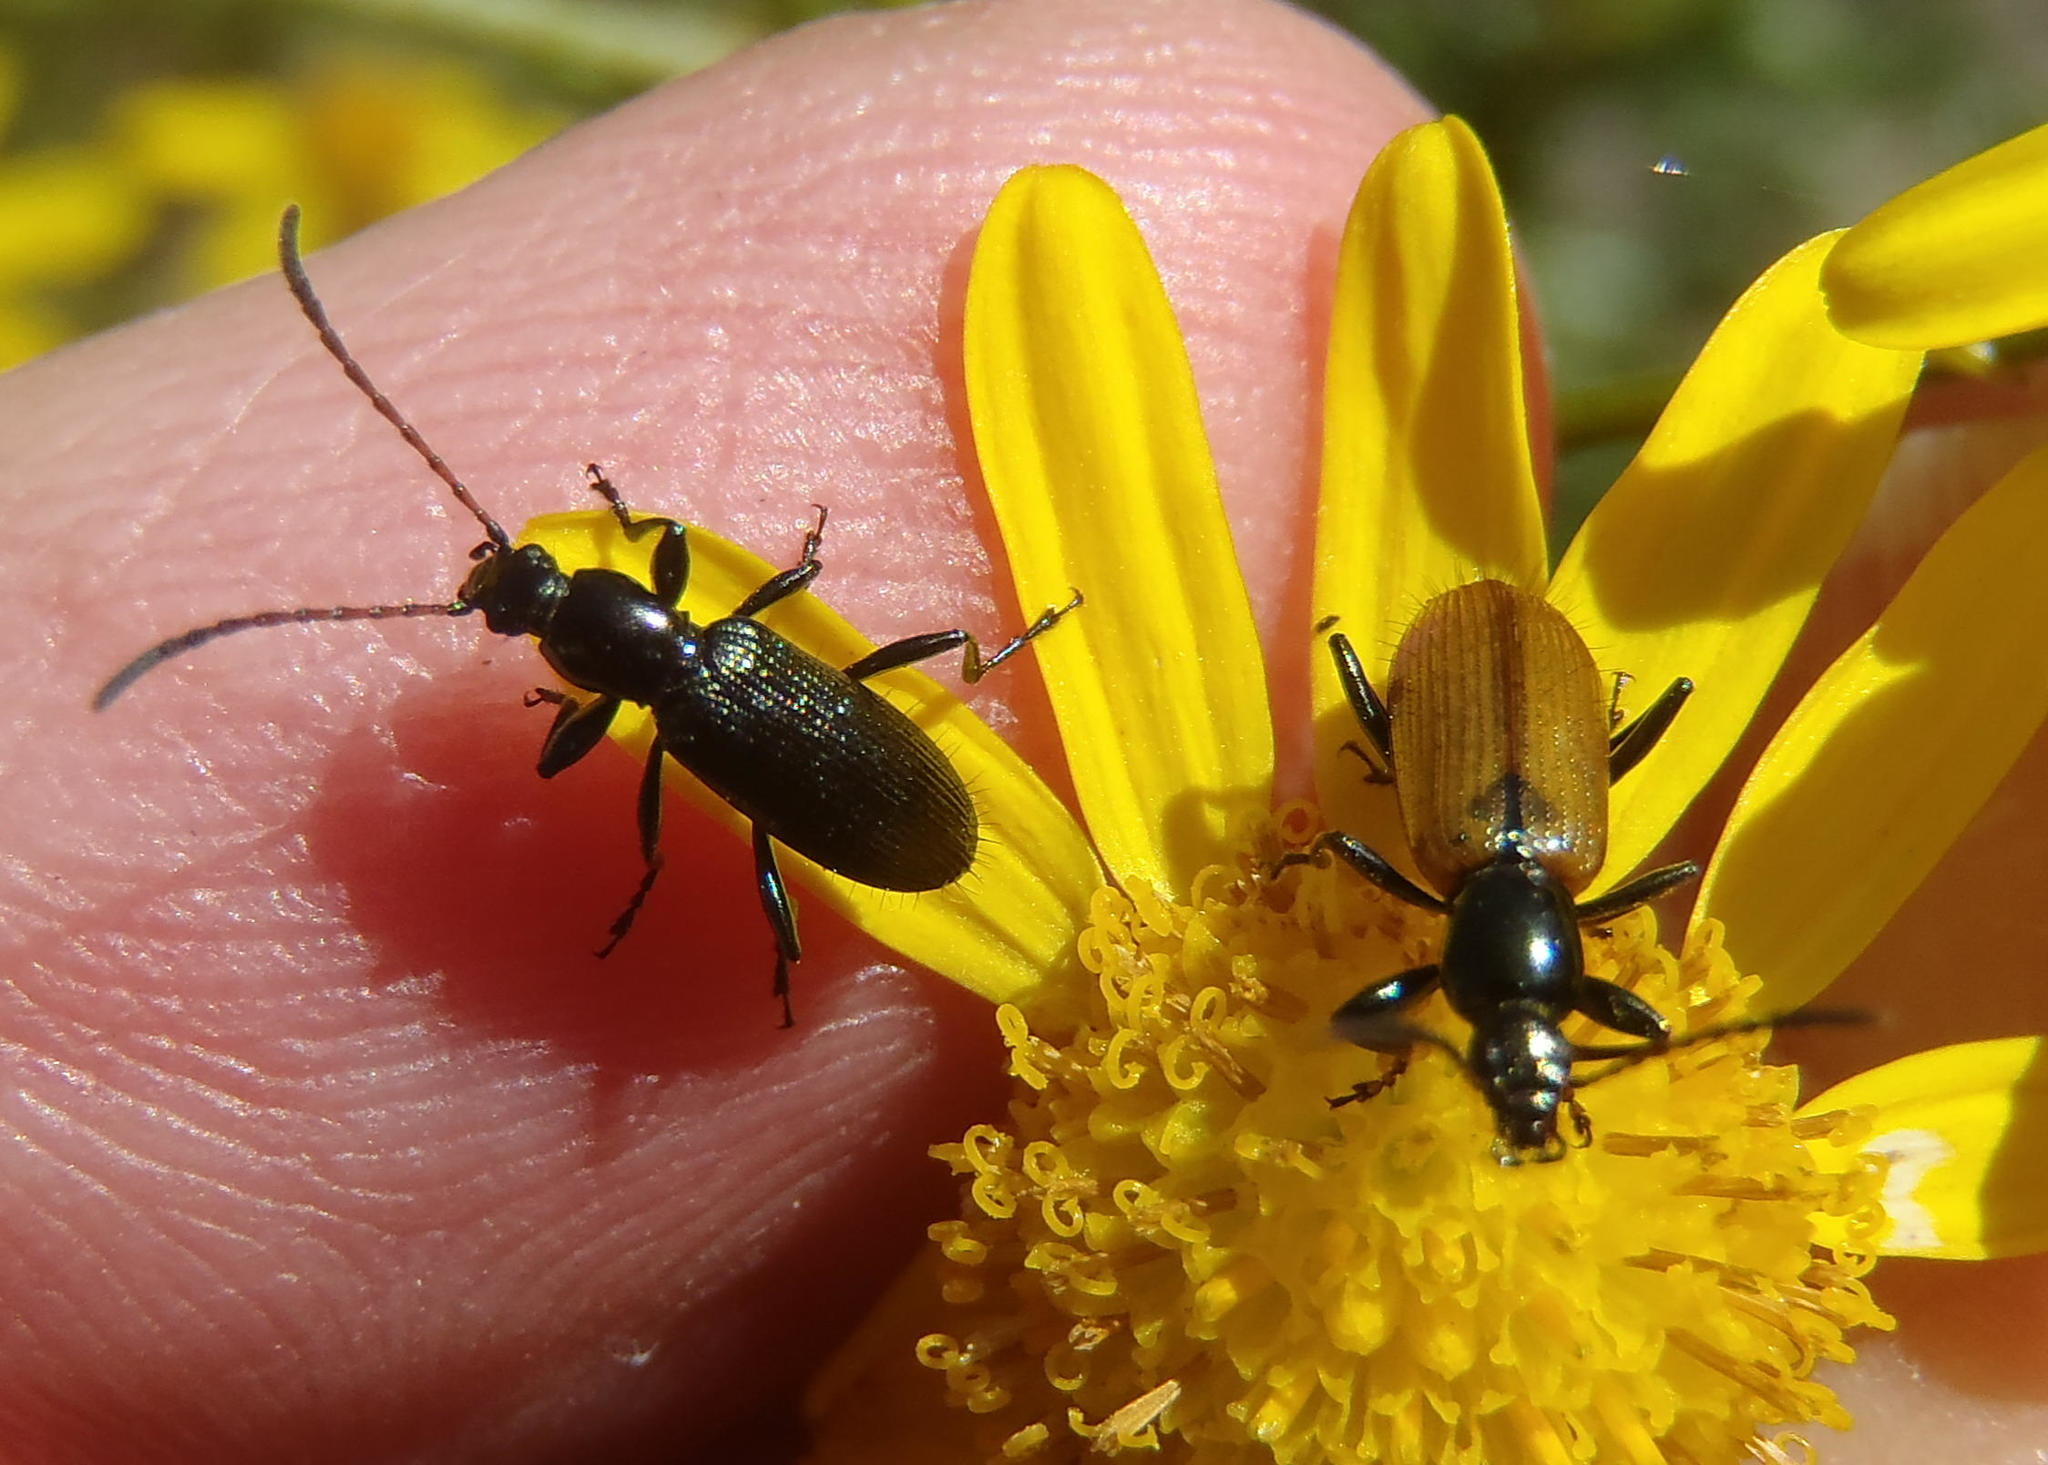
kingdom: Animalia
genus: Neoeutrapela
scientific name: Neoeutrapela
